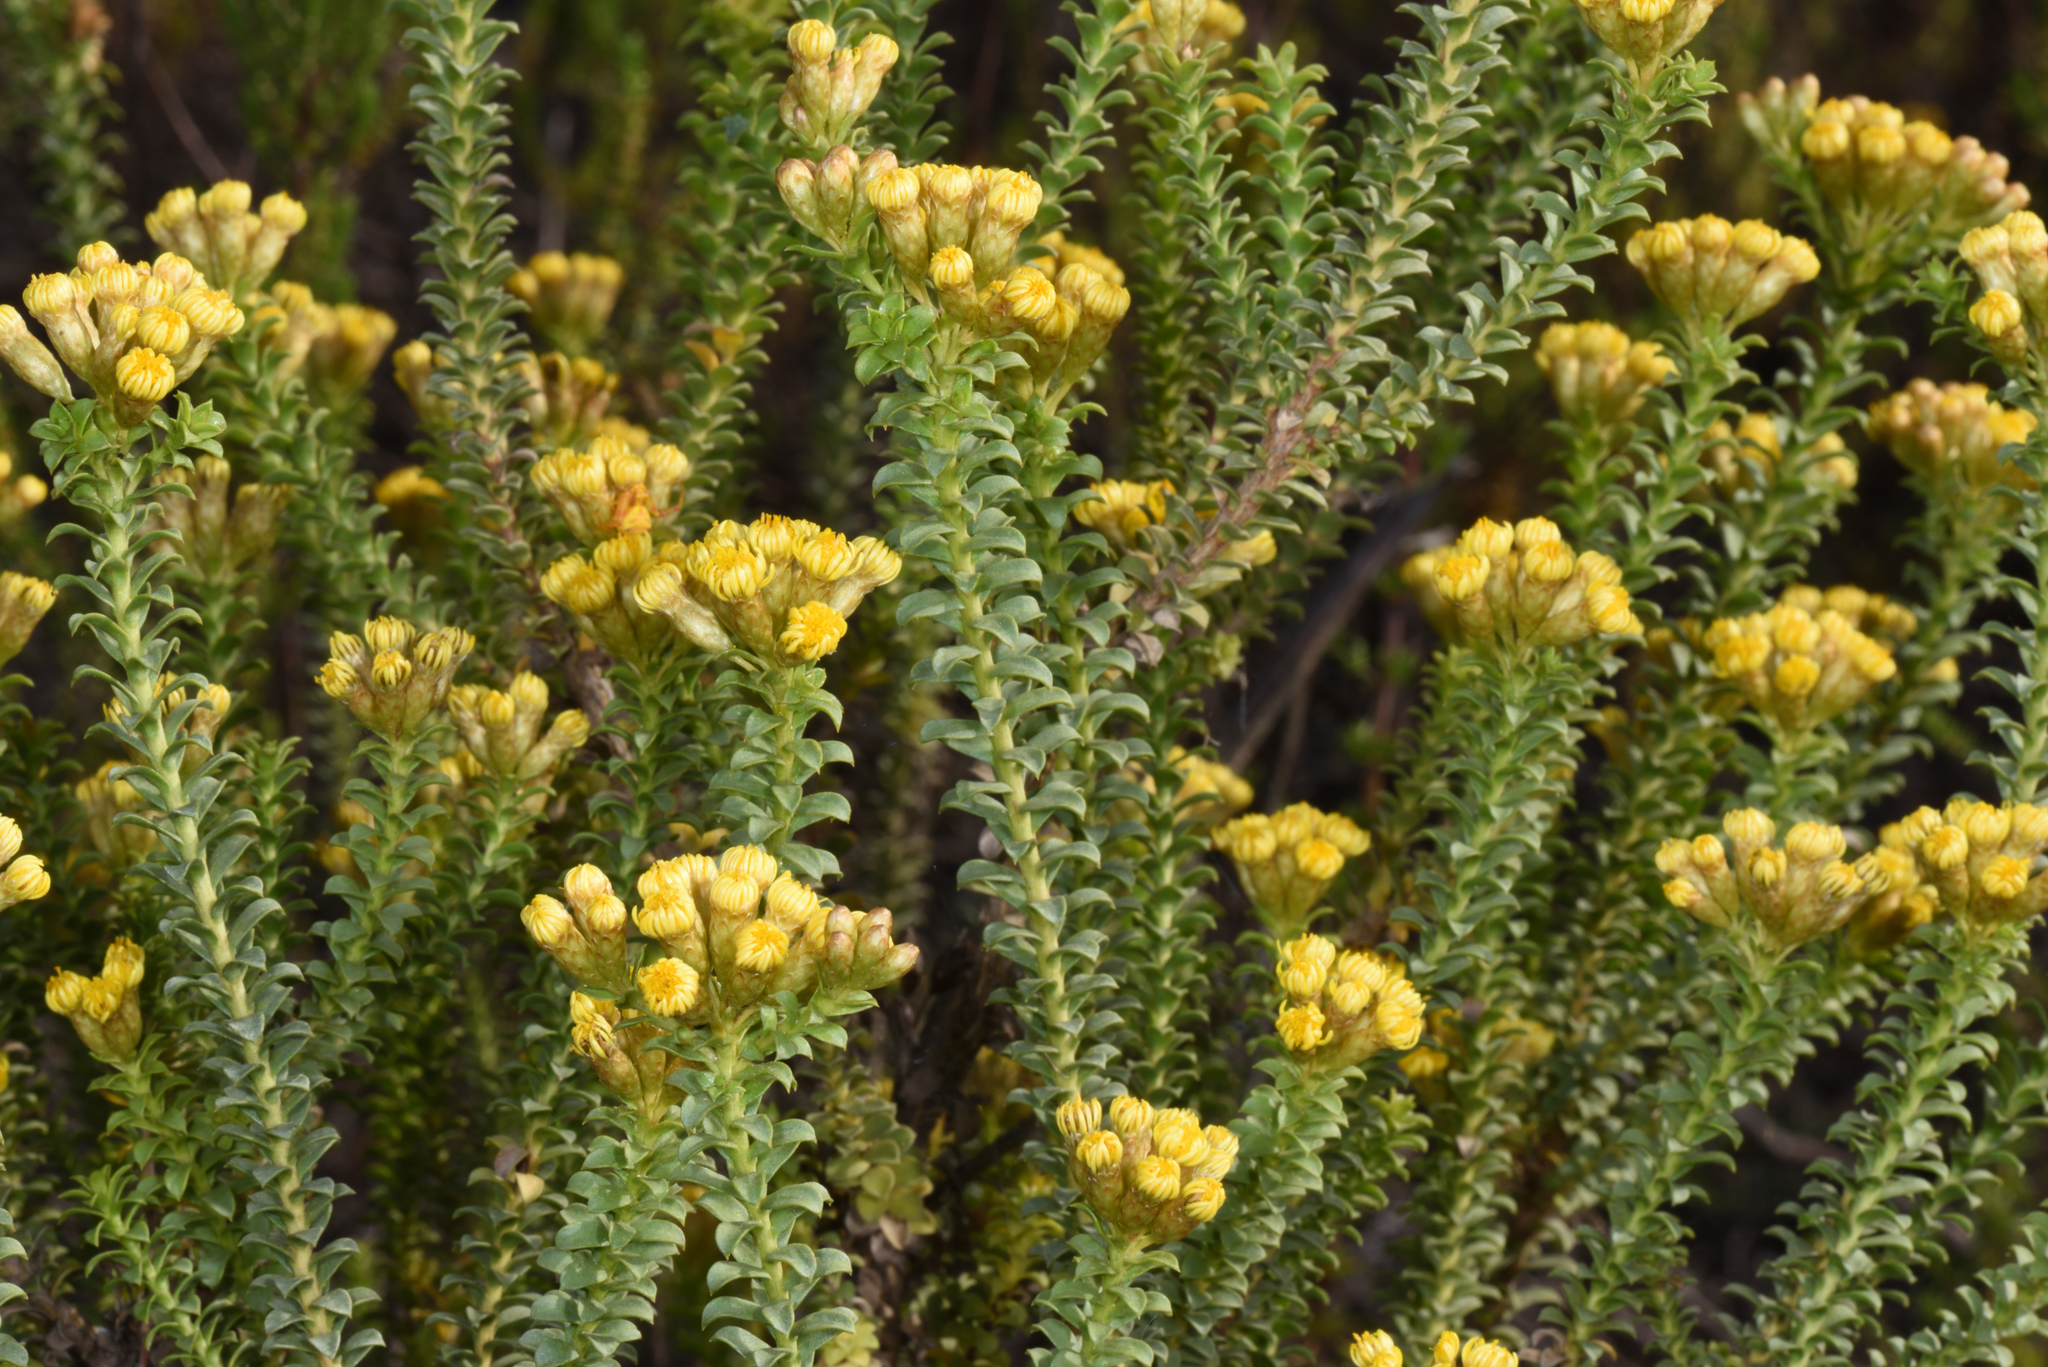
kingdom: Plantae
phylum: Tracheophyta
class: Magnoliopsida
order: Asterales
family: Asteraceae
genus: Oedera
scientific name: Oedera squarrosa
